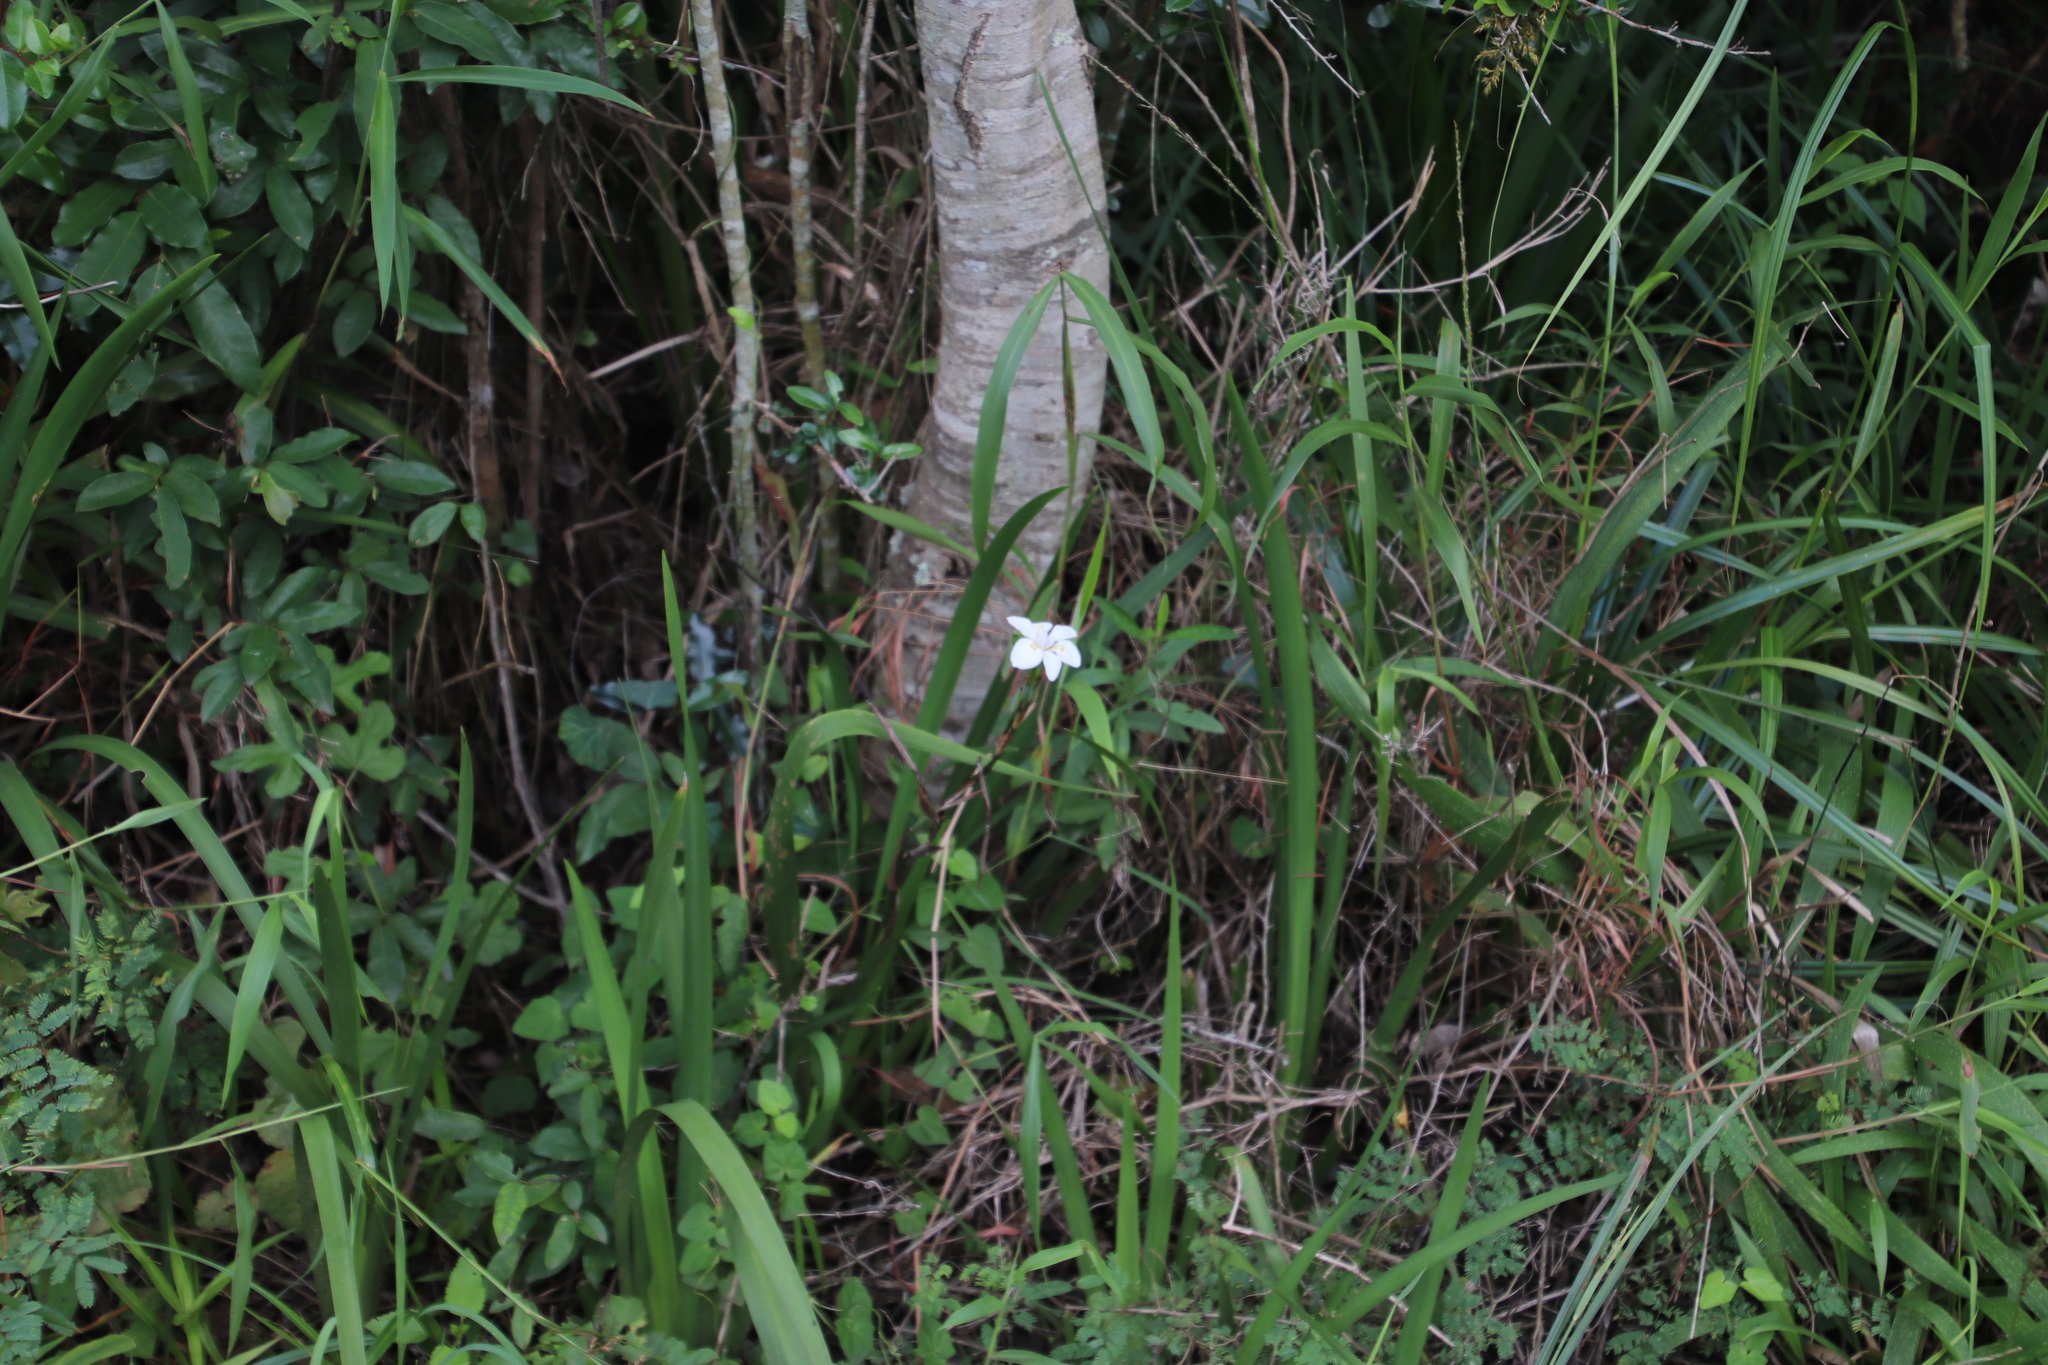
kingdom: Plantae
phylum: Tracheophyta
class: Liliopsida
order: Asparagales
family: Iridaceae
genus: Dietes
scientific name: Dietes iridioides
